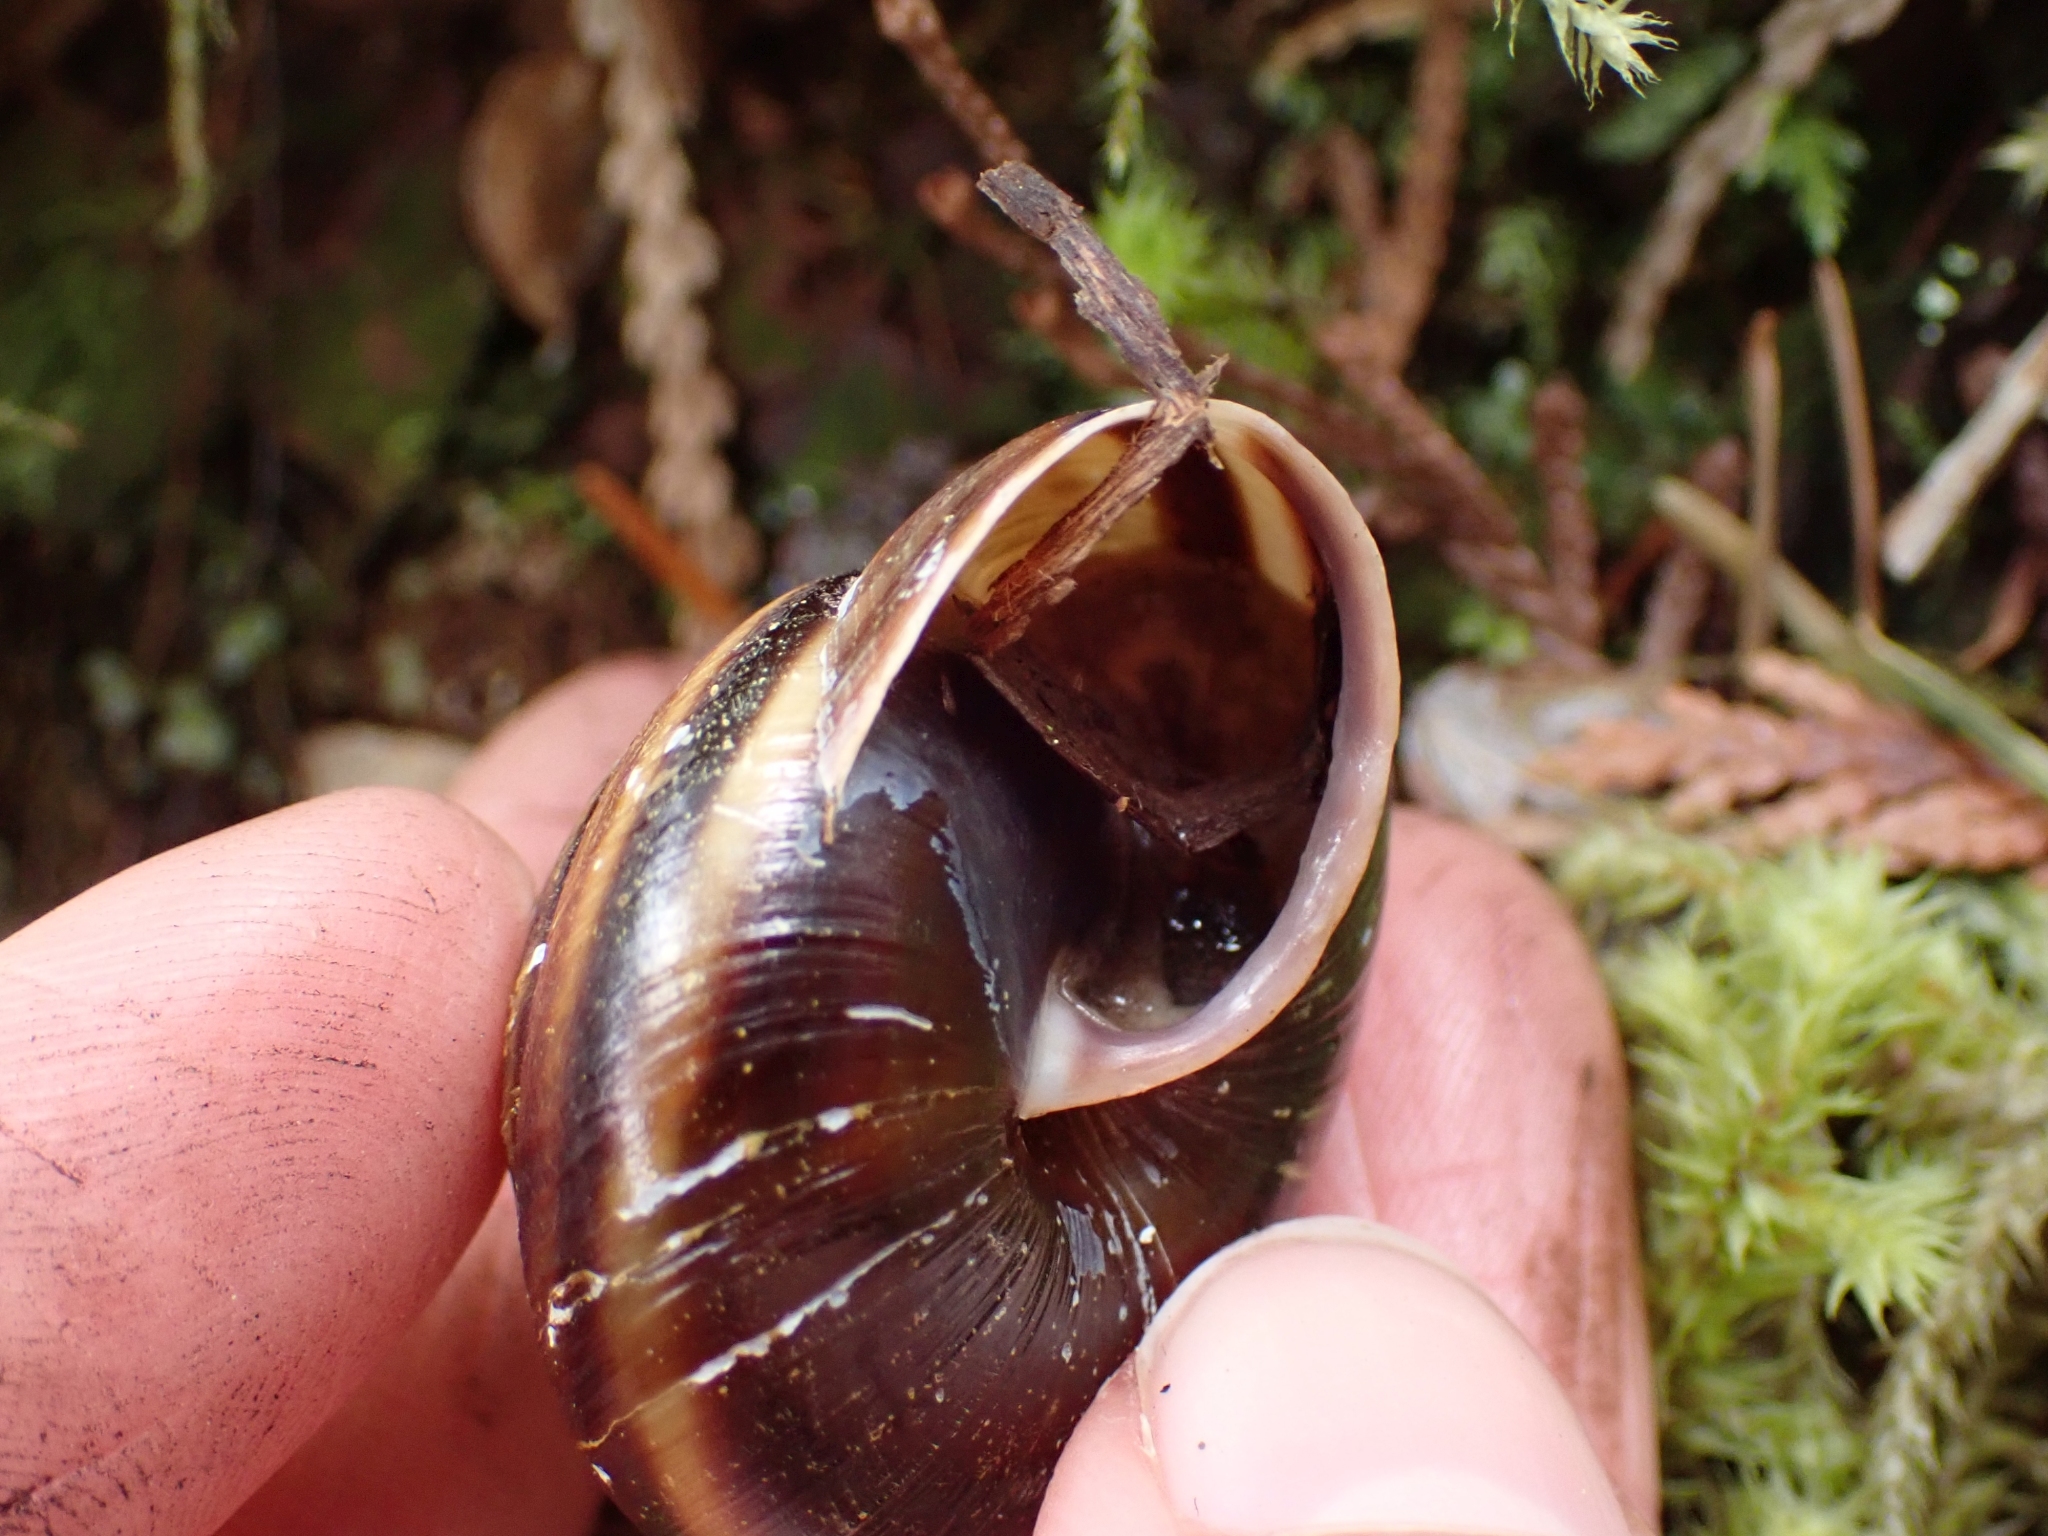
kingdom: Animalia
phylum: Mollusca
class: Gastropoda
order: Stylommatophora
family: Xanthonychidae
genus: Monadenia
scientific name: Monadenia fidelis
